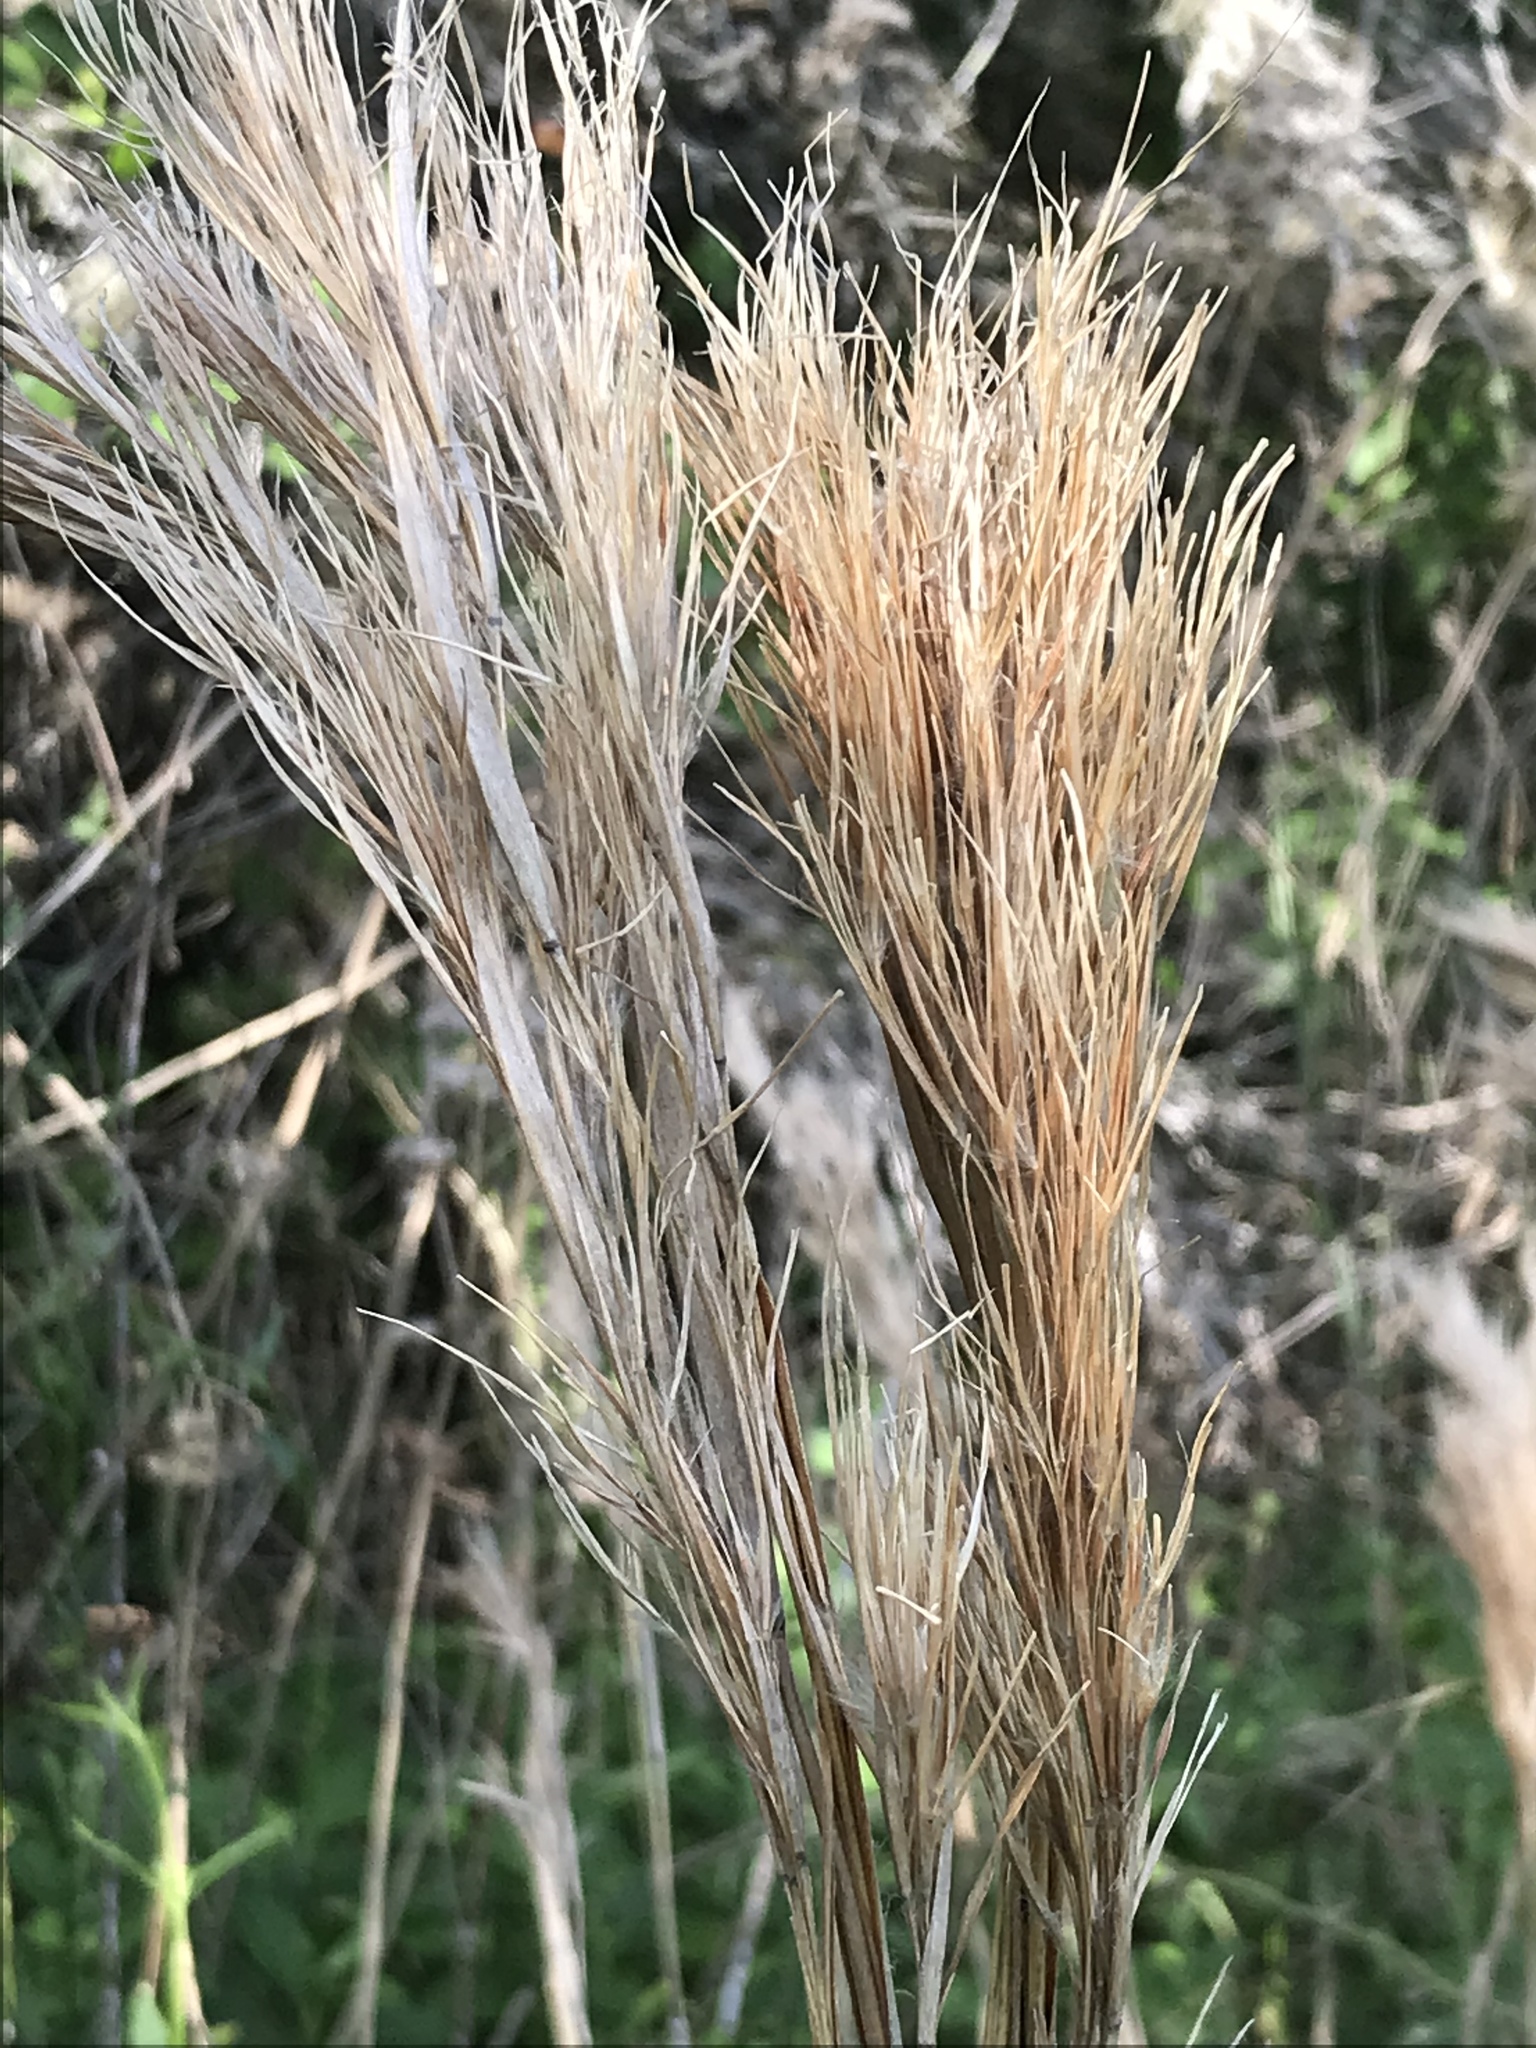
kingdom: Plantae
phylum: Tracheophyta
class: Liliopsida
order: Poales
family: Poaceae
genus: Andropogon
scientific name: Andropogon tenuispatheus
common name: Bushy bluestem
